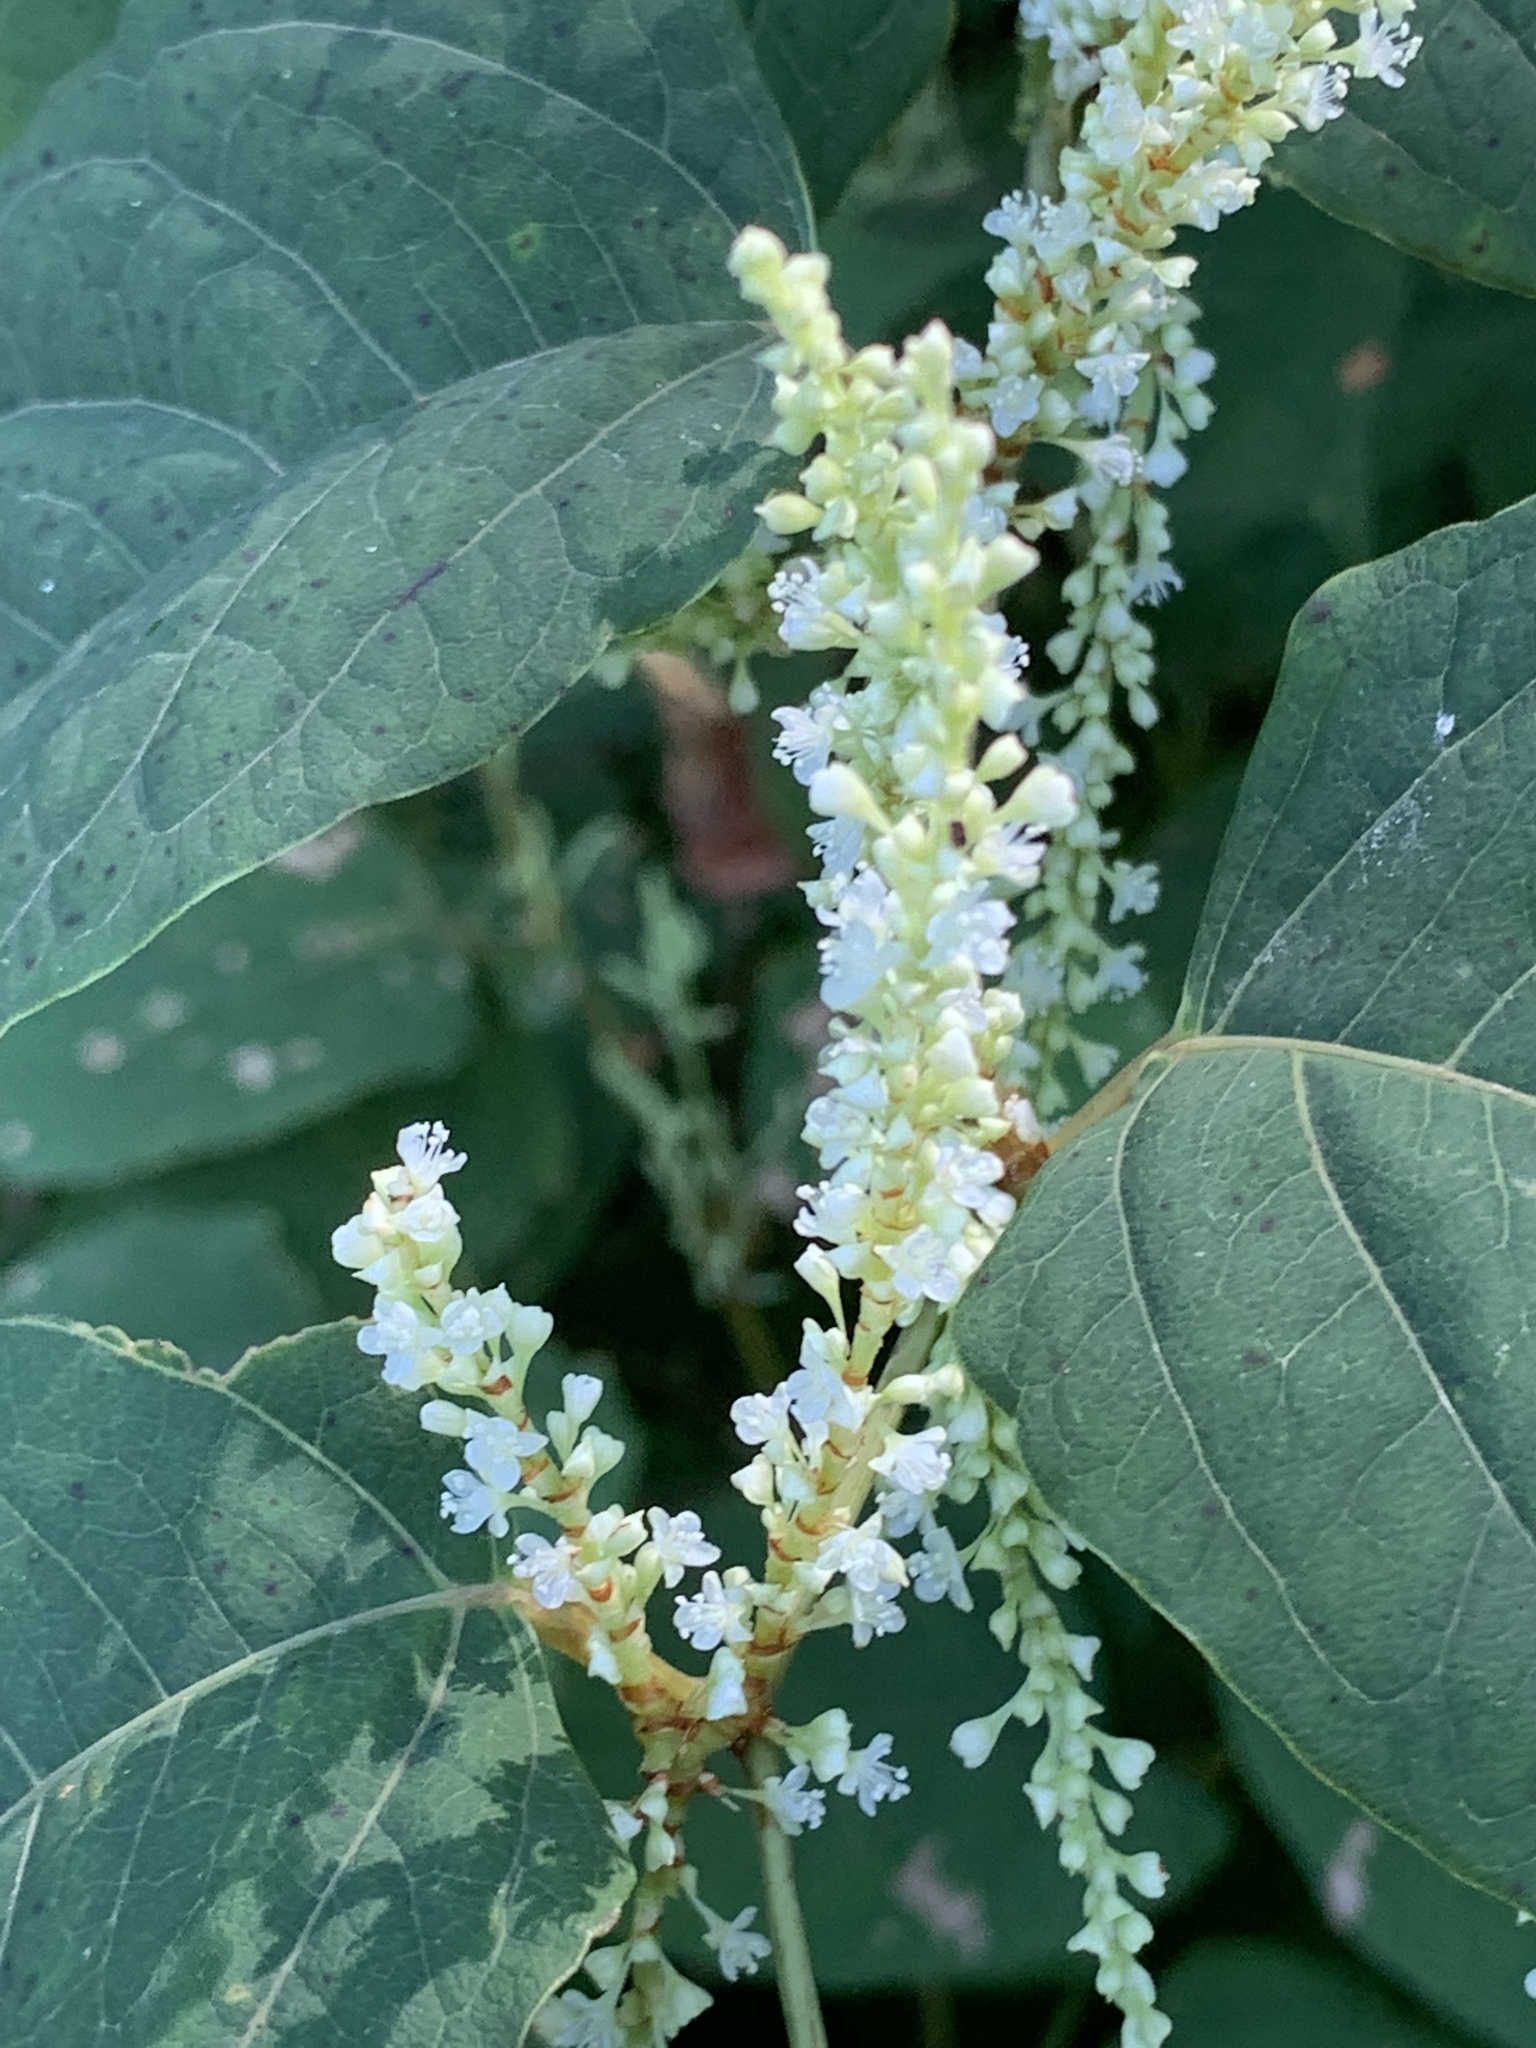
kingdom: Plantae
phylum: Tracheophyta
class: Magnoliopsida
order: Caryophyllales
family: Polygonaceae
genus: Reynoutria
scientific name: Reynoutria japonica
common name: Japanese knotweed
